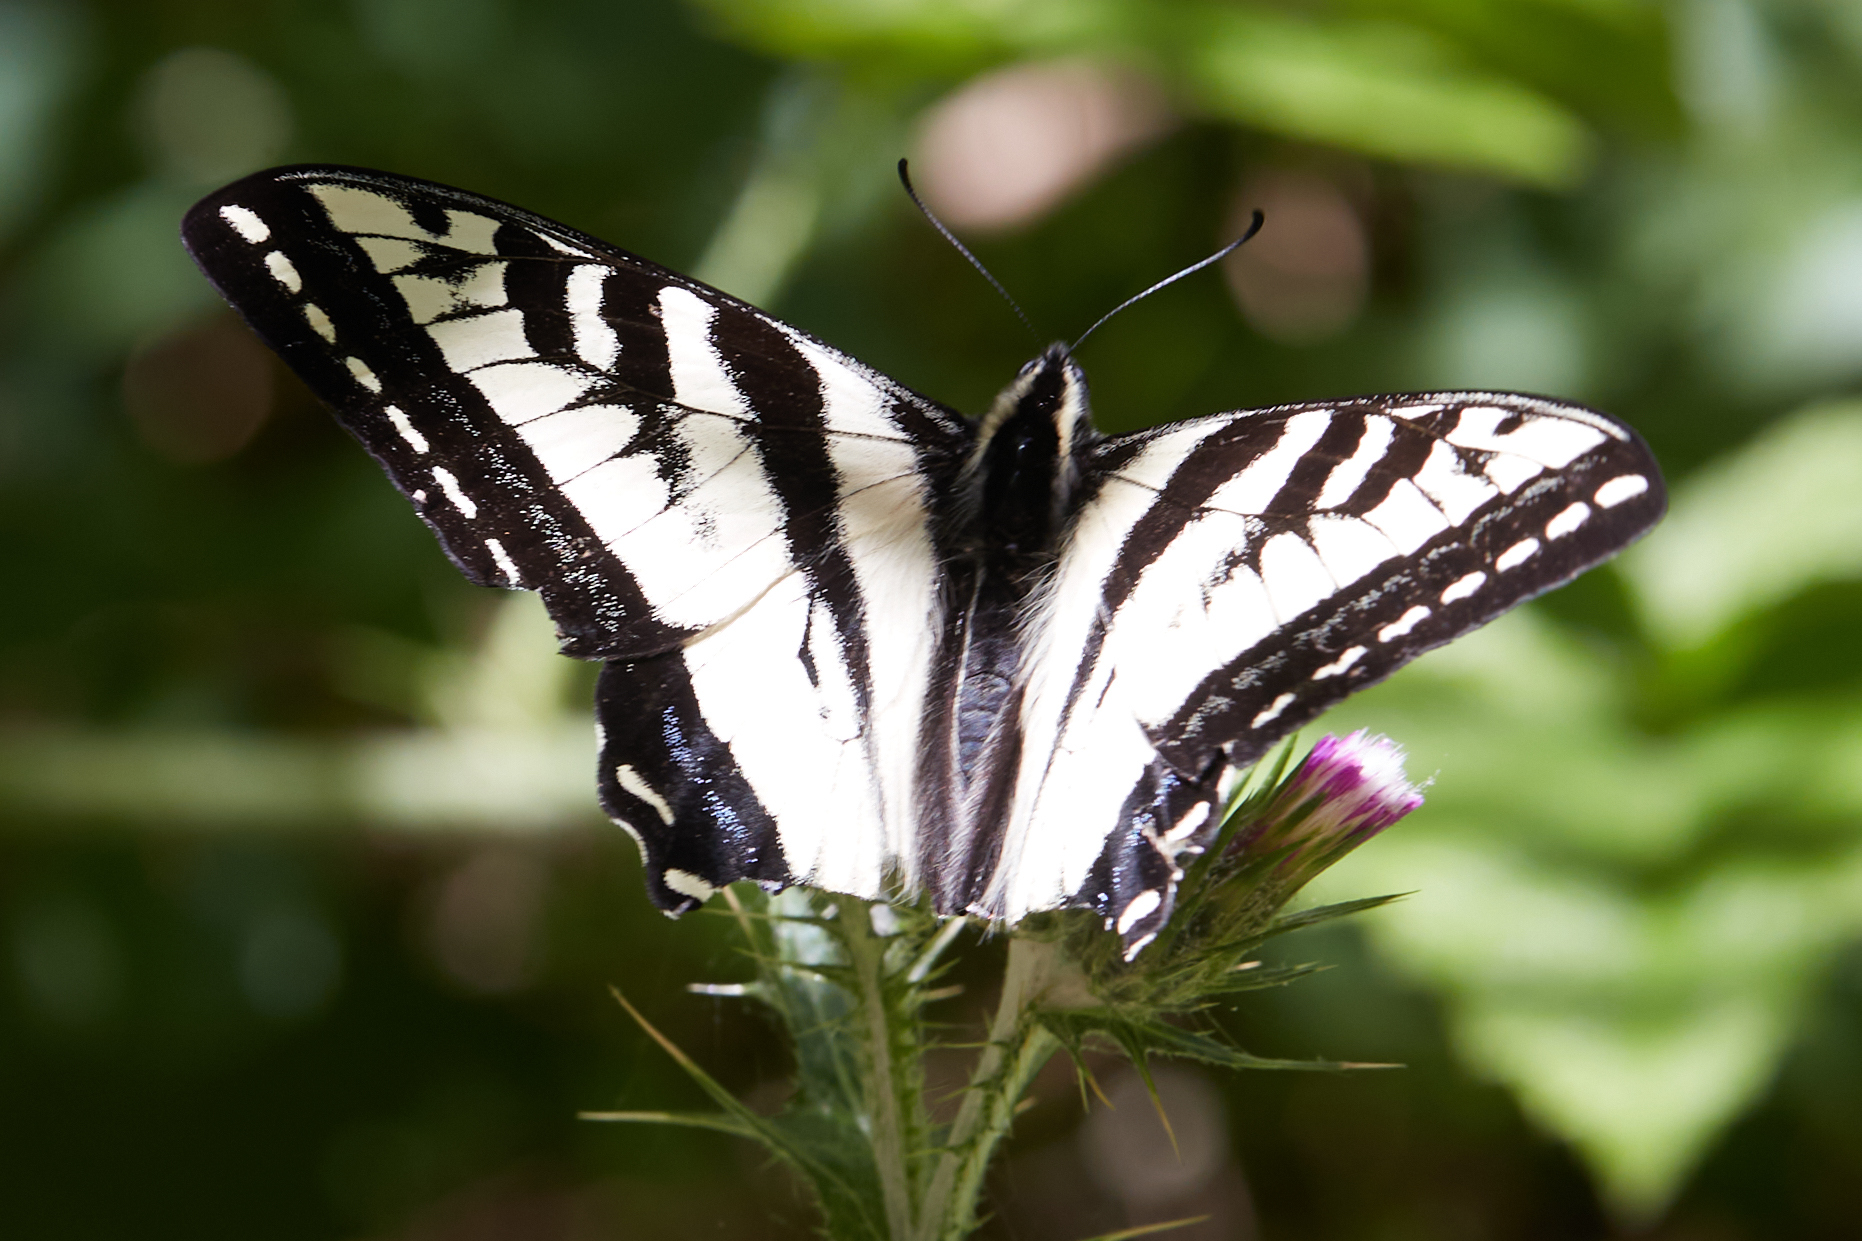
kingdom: Animalia
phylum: Arthropoda
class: Insecta
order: Lepidoptera
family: Papilionidae
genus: Papilio
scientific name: Papilio eurymedon
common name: Pale tiger swallowtail
